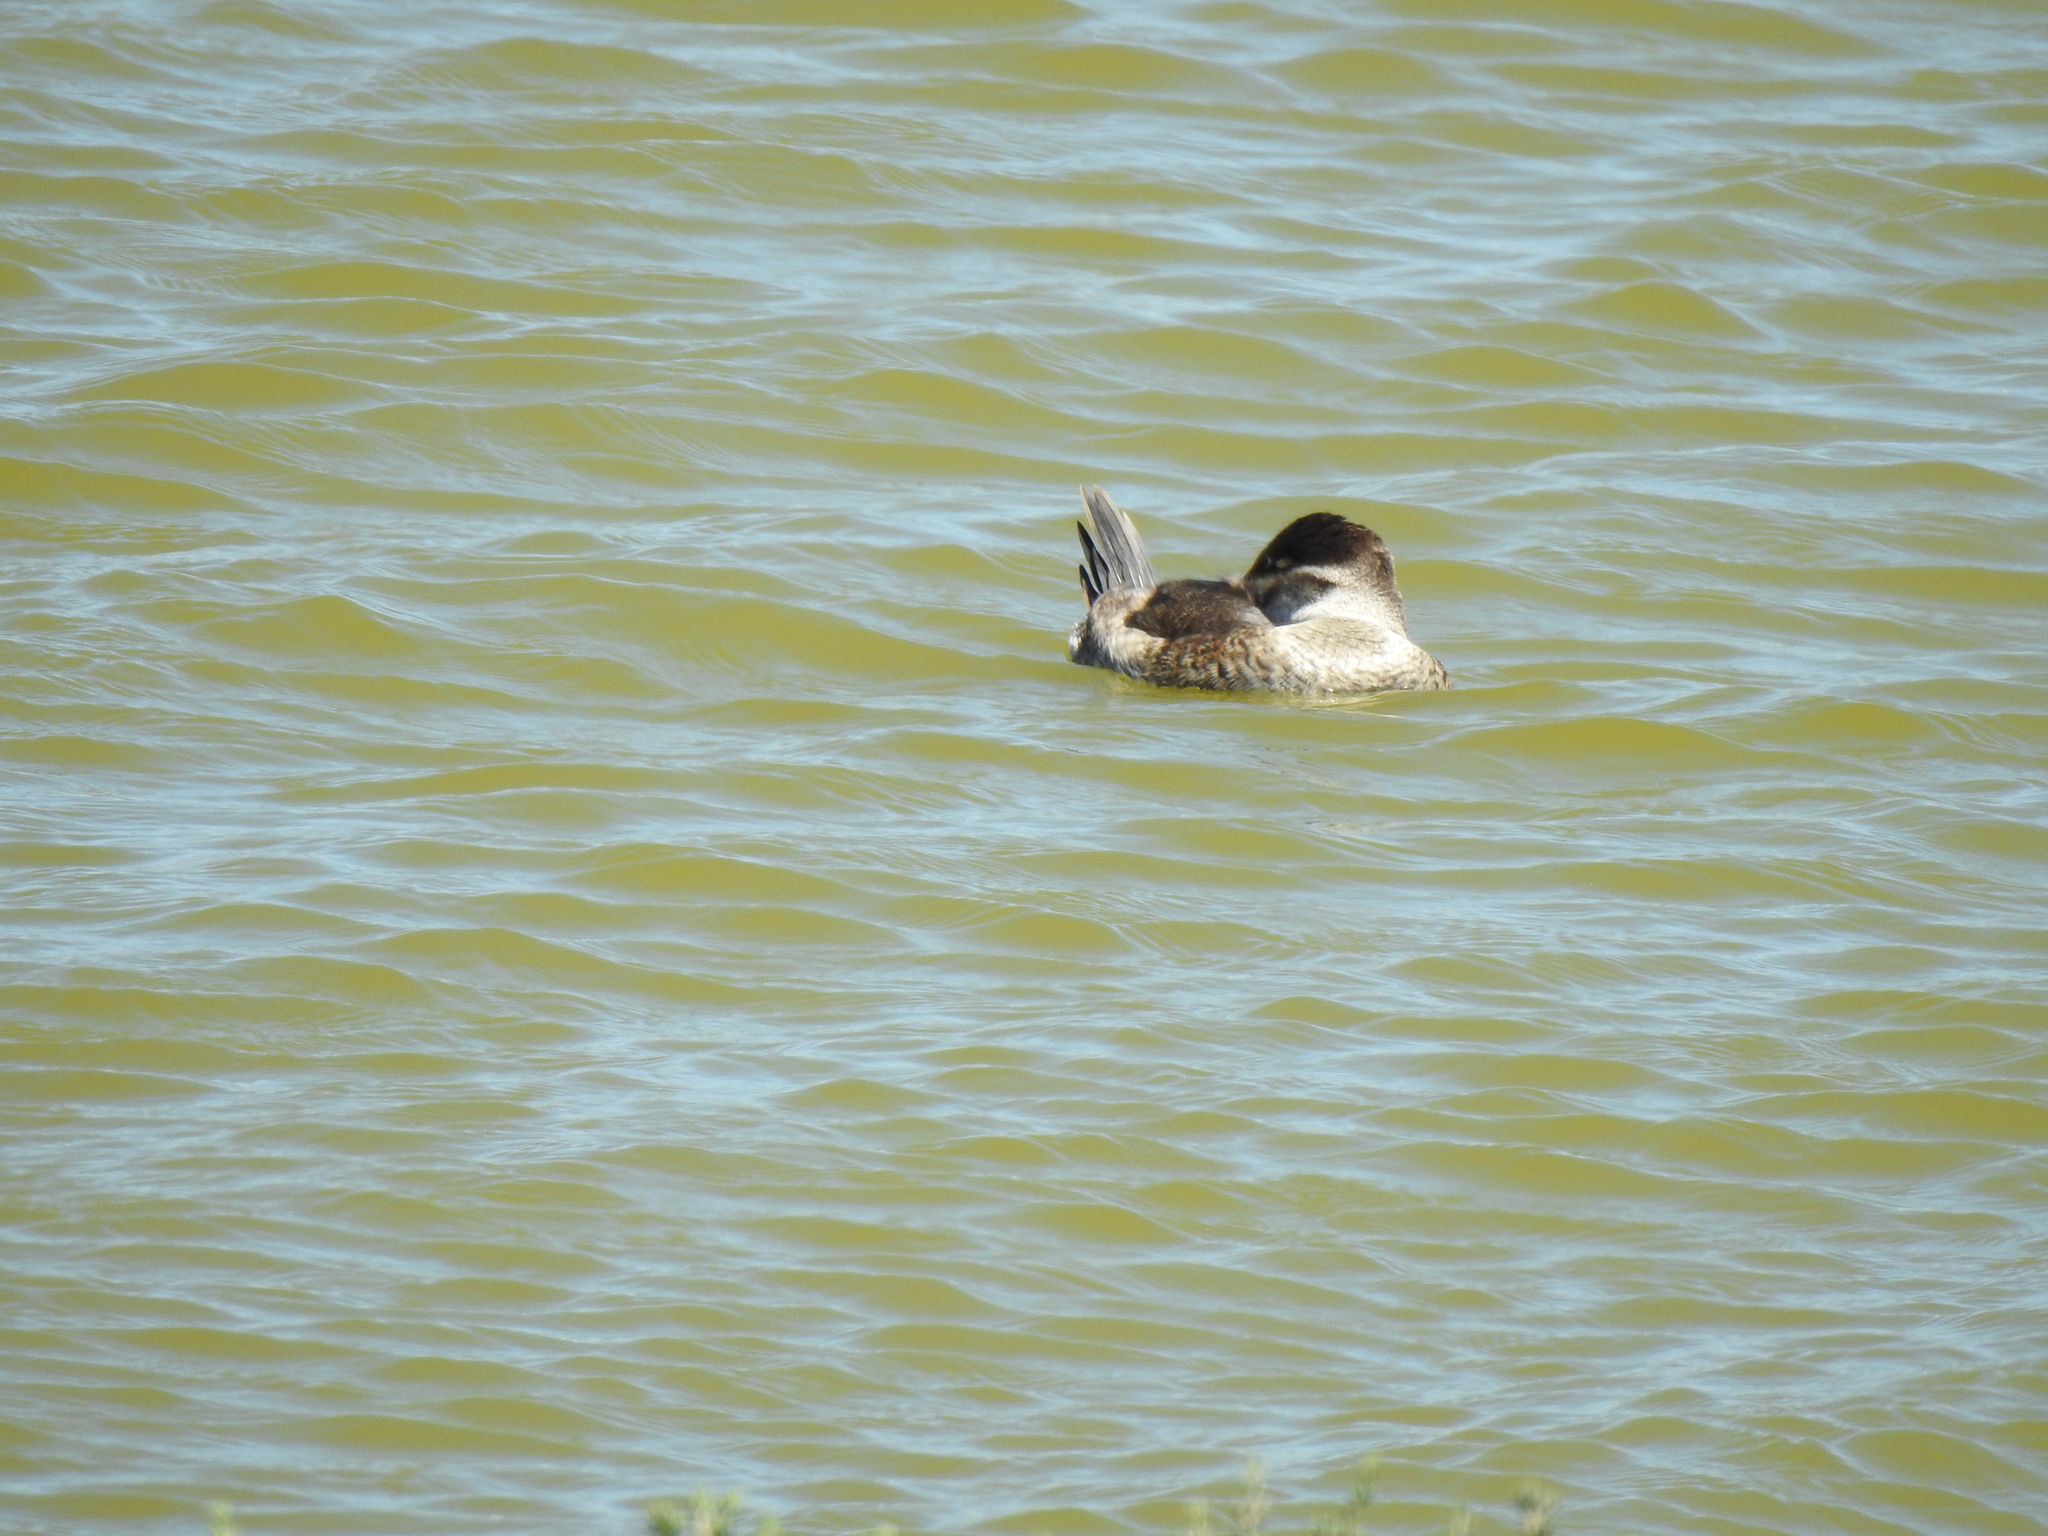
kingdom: Animalia
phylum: Chordata
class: Aves
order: Anseriformes
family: Anatidae
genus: Oxyura
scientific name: Oxyura jamaicensis
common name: Ruddy duck
